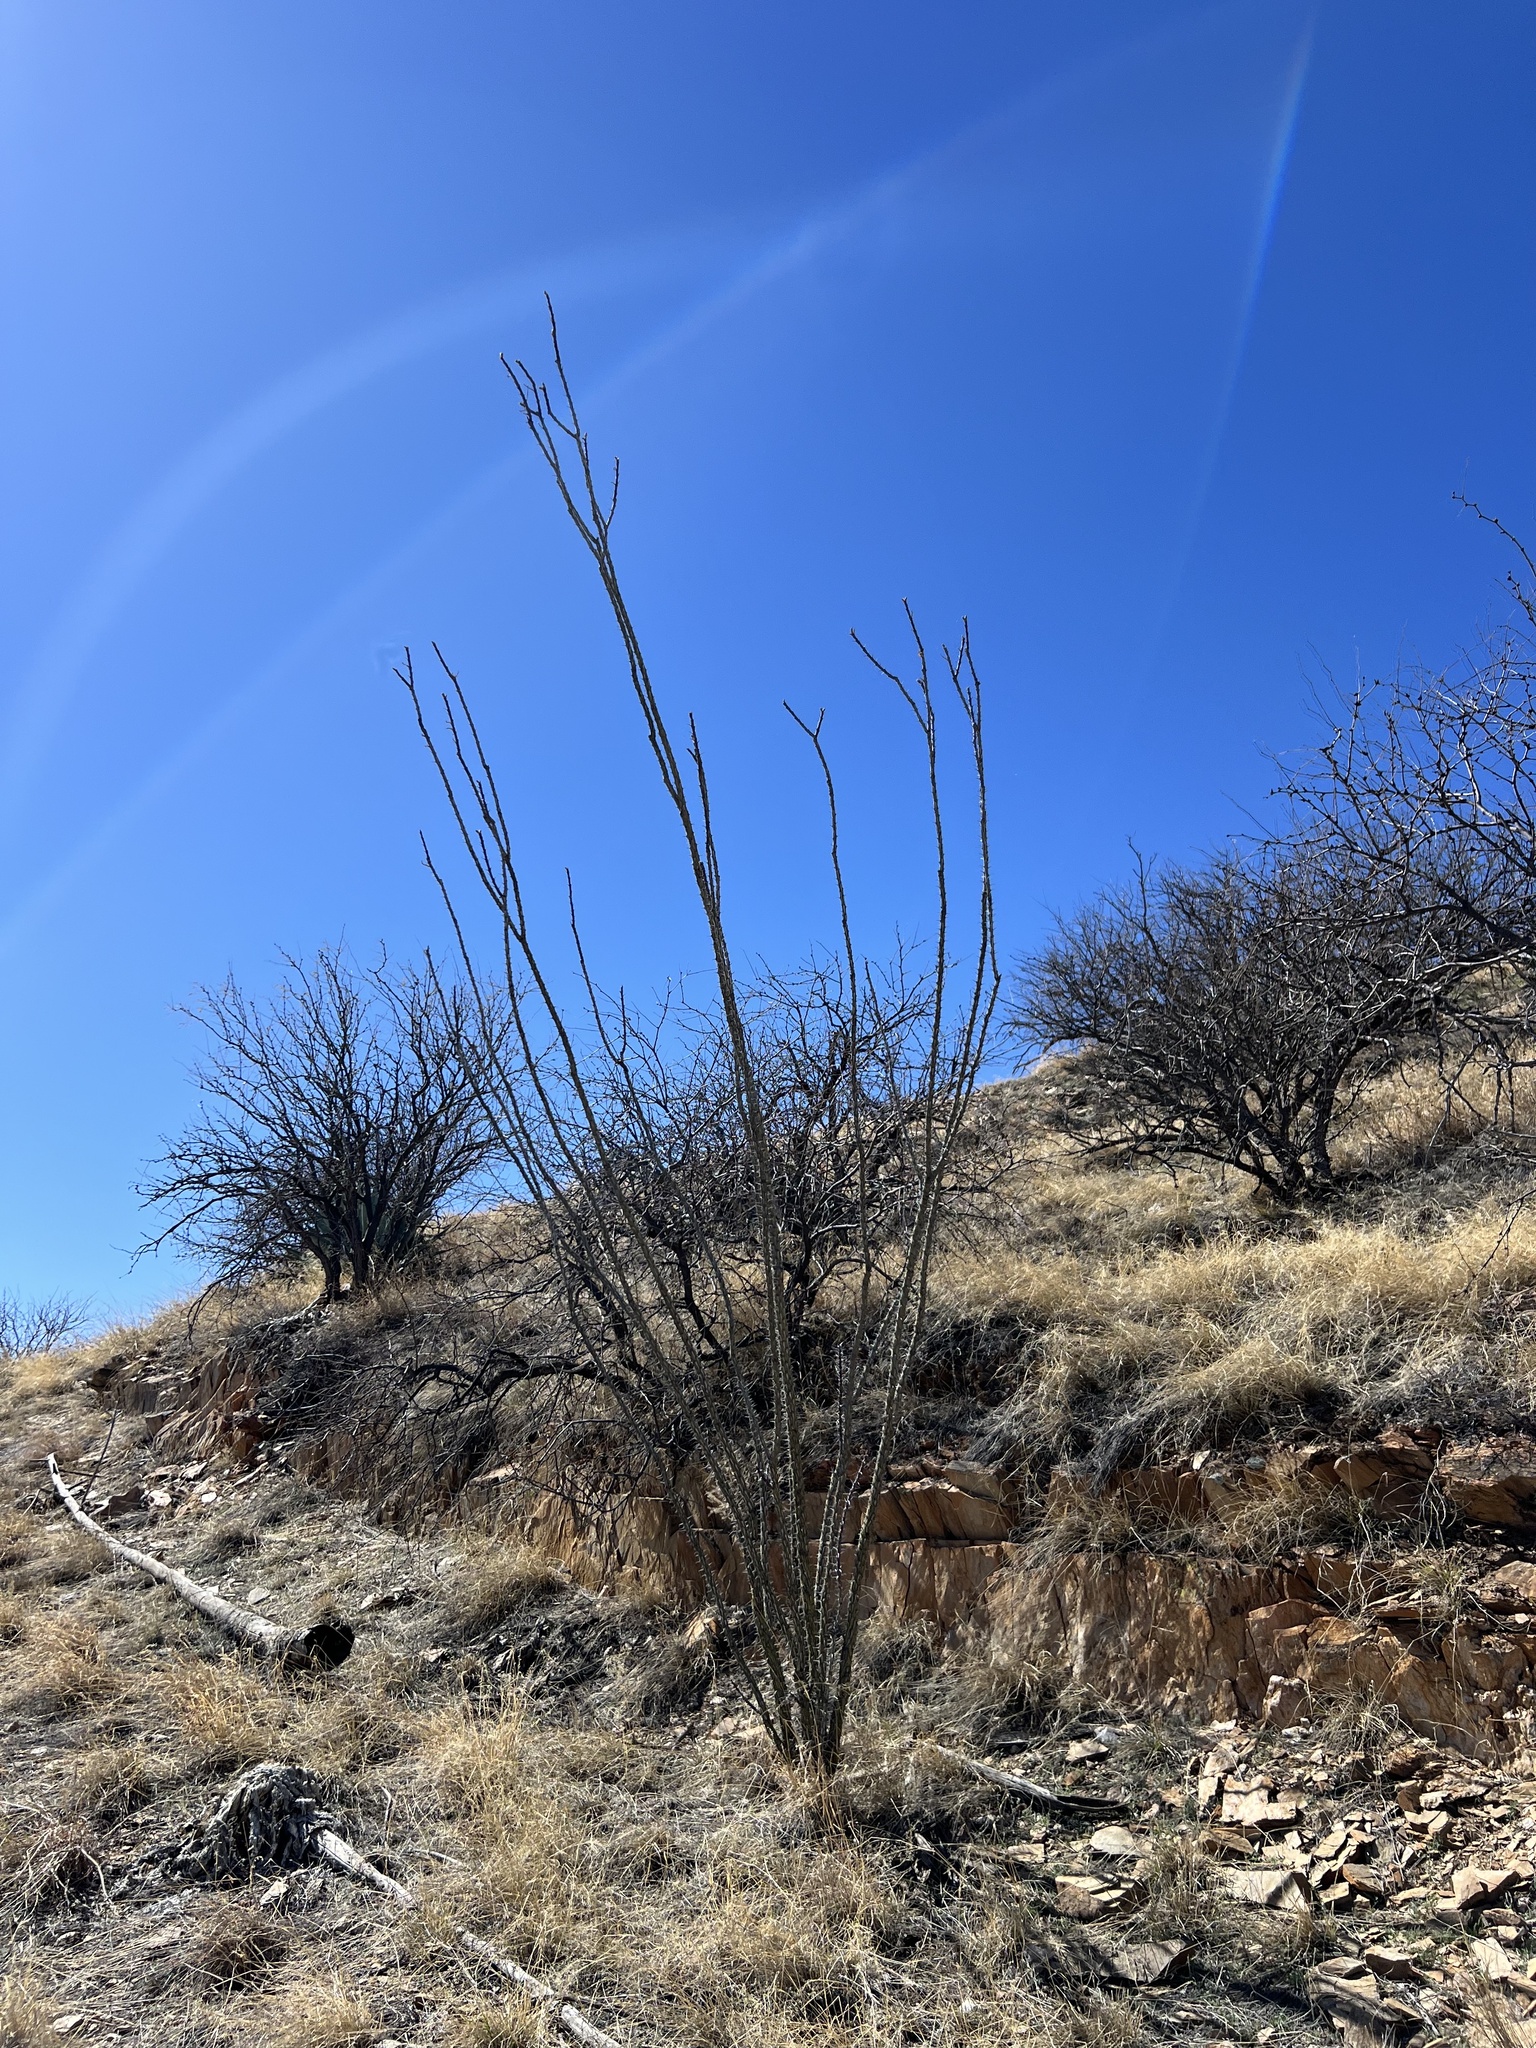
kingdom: Plantae
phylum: Tracheophyta
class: Magnoliopsida
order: Ericales
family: Fouquieriaceae
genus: Fouquieria
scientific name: Fouquieria splendens
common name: Vine-cactus
